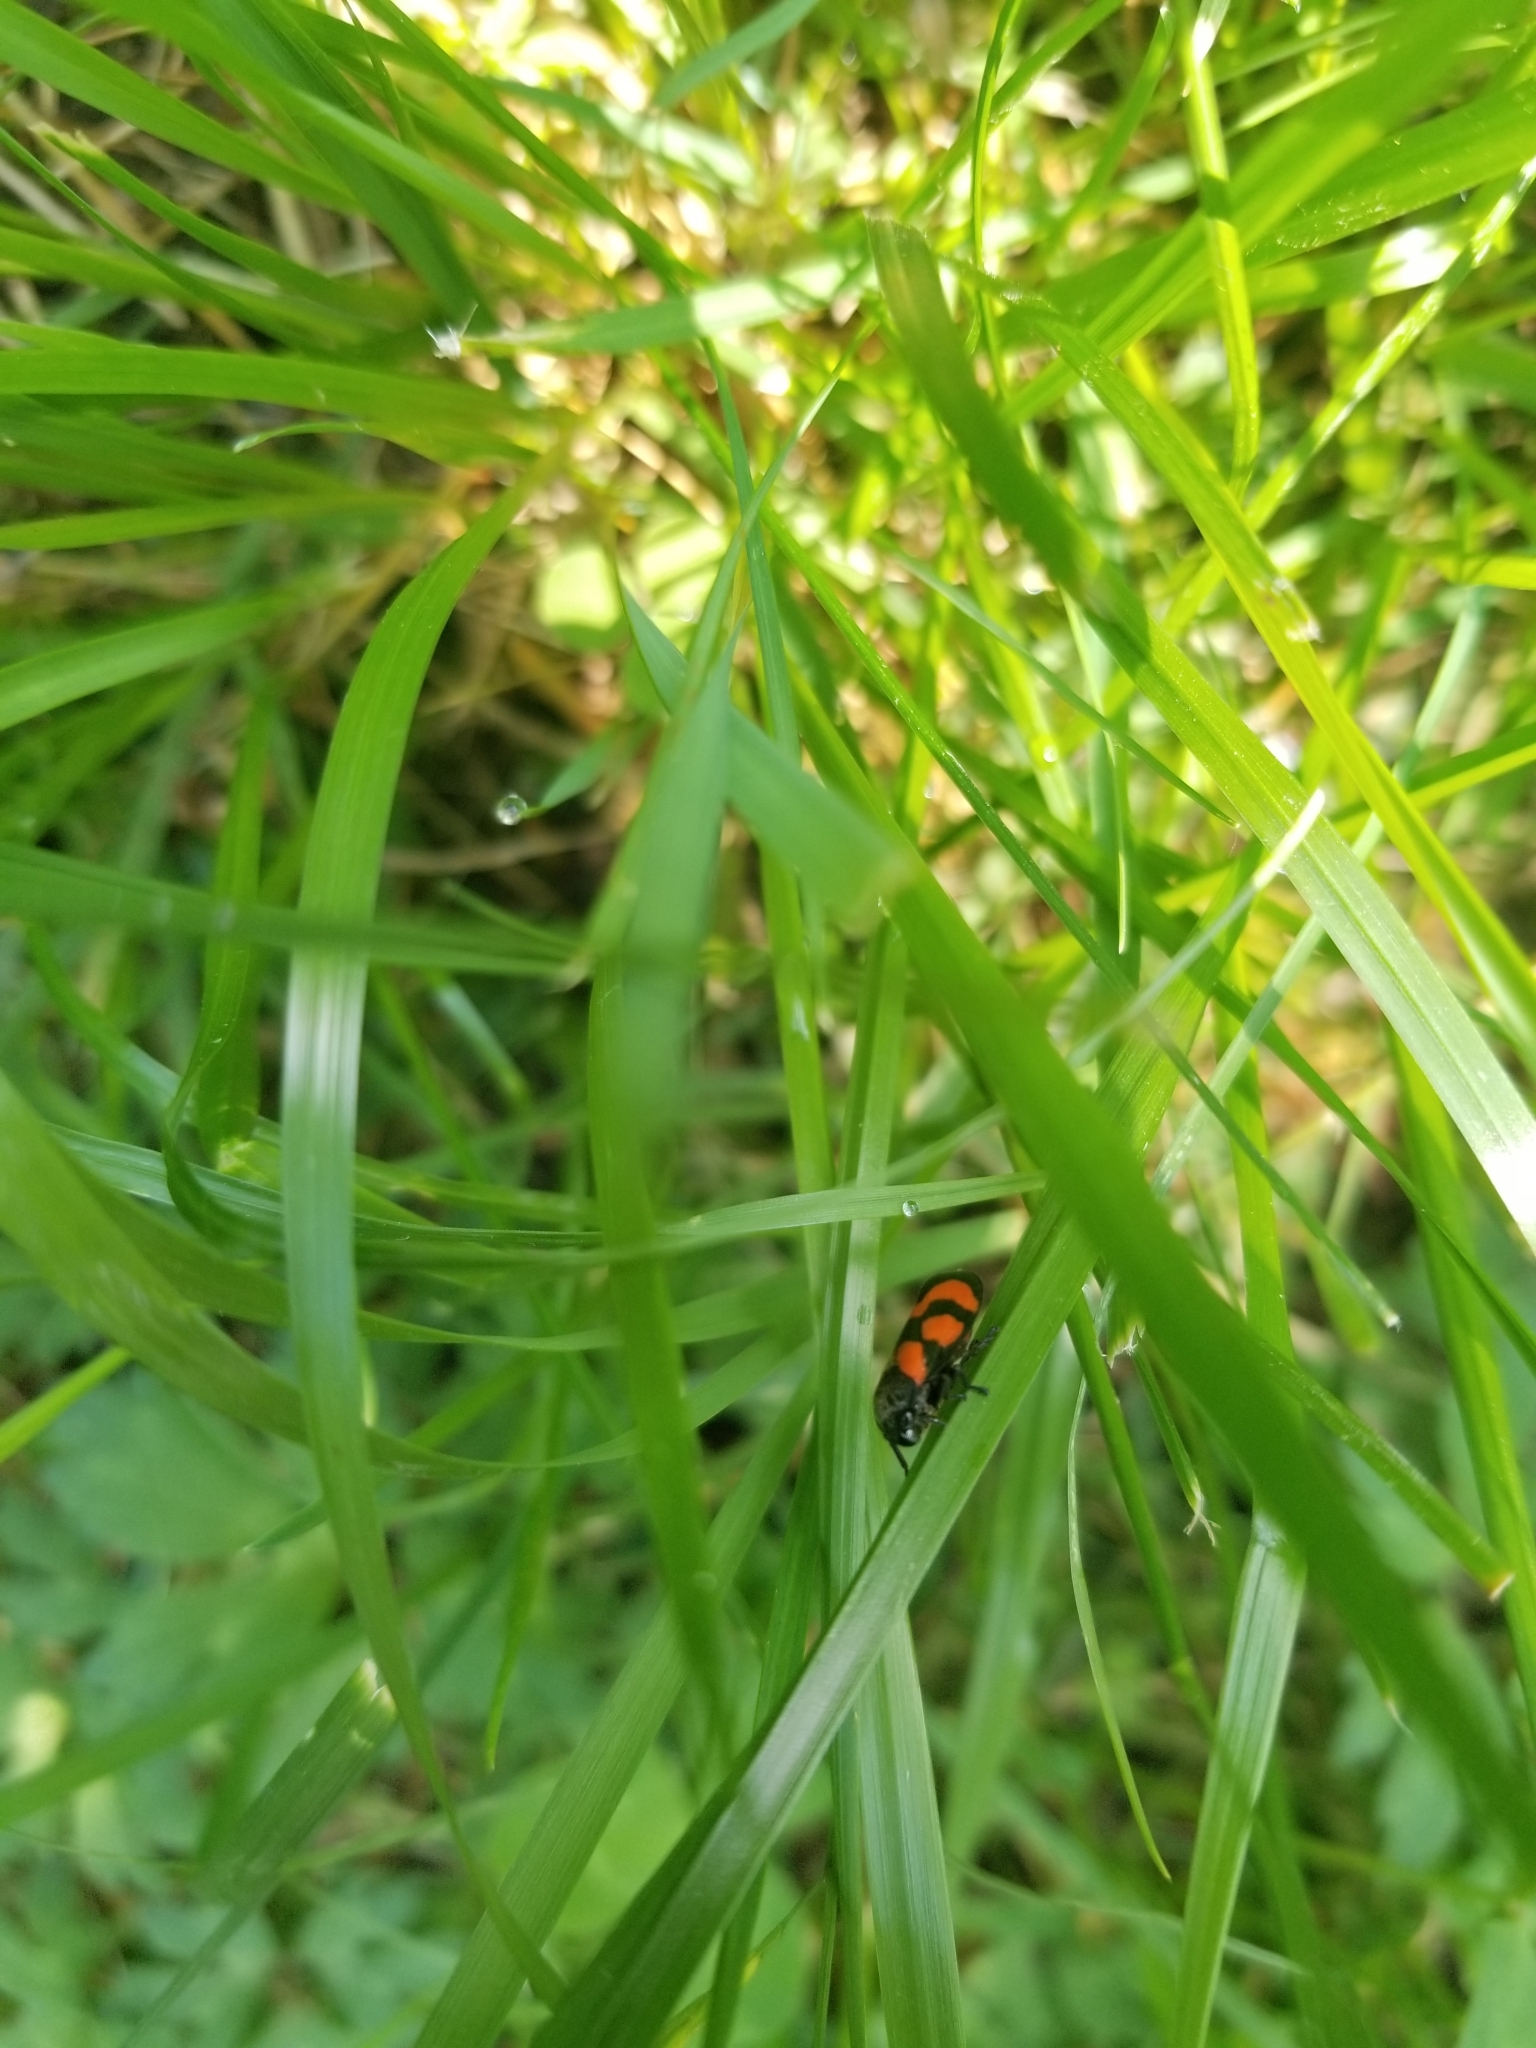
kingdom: Animalia
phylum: Arthropoda
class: Insecta
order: Hemiptera
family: Cercopidae
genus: Cercopis
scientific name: Cercopis vulnerata
